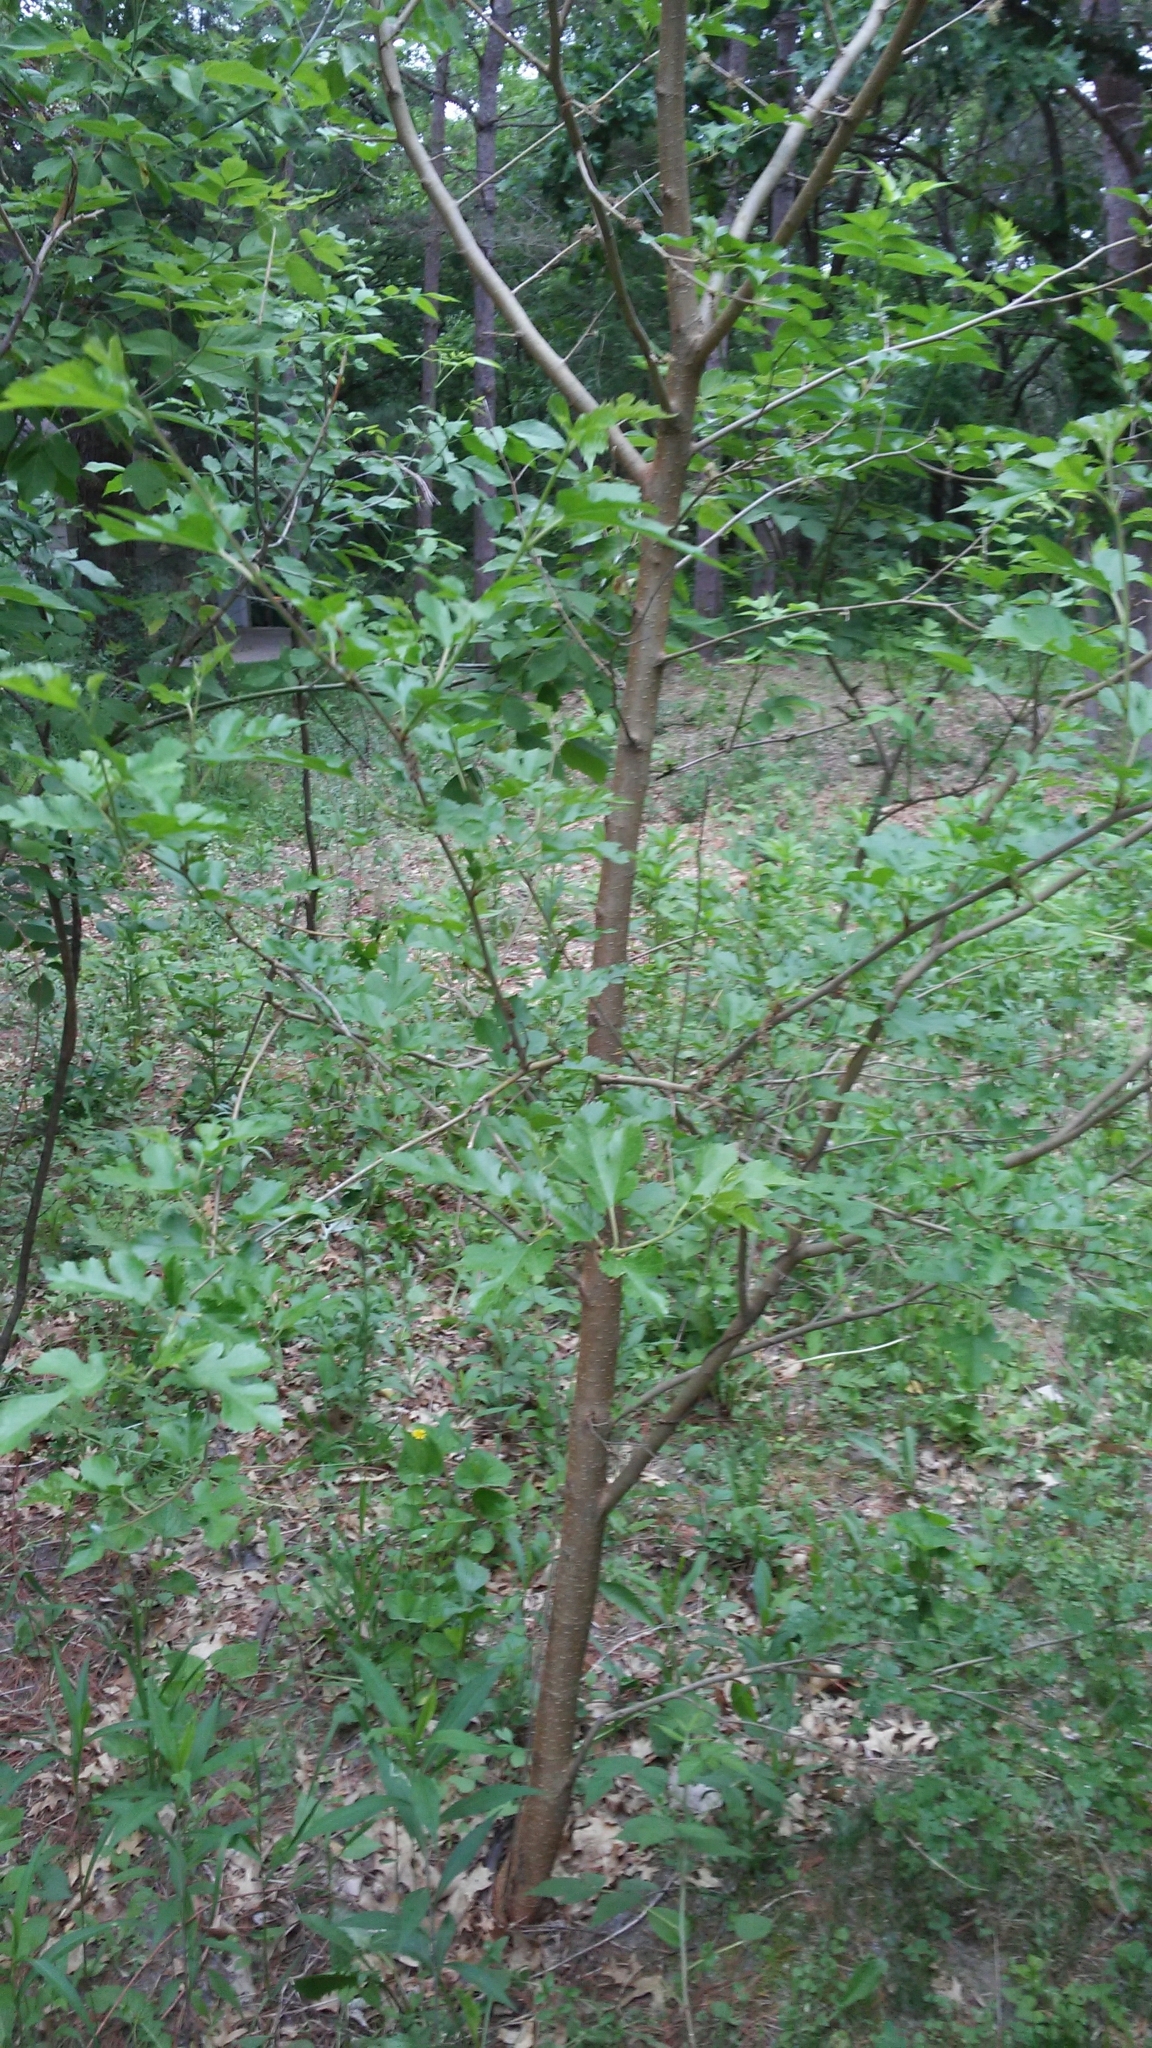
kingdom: Plantae
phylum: Tracheophyta
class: Magnoliopsida
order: Rosales
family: Moraceae
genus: Morus
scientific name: Morus alba
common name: White mulberry
